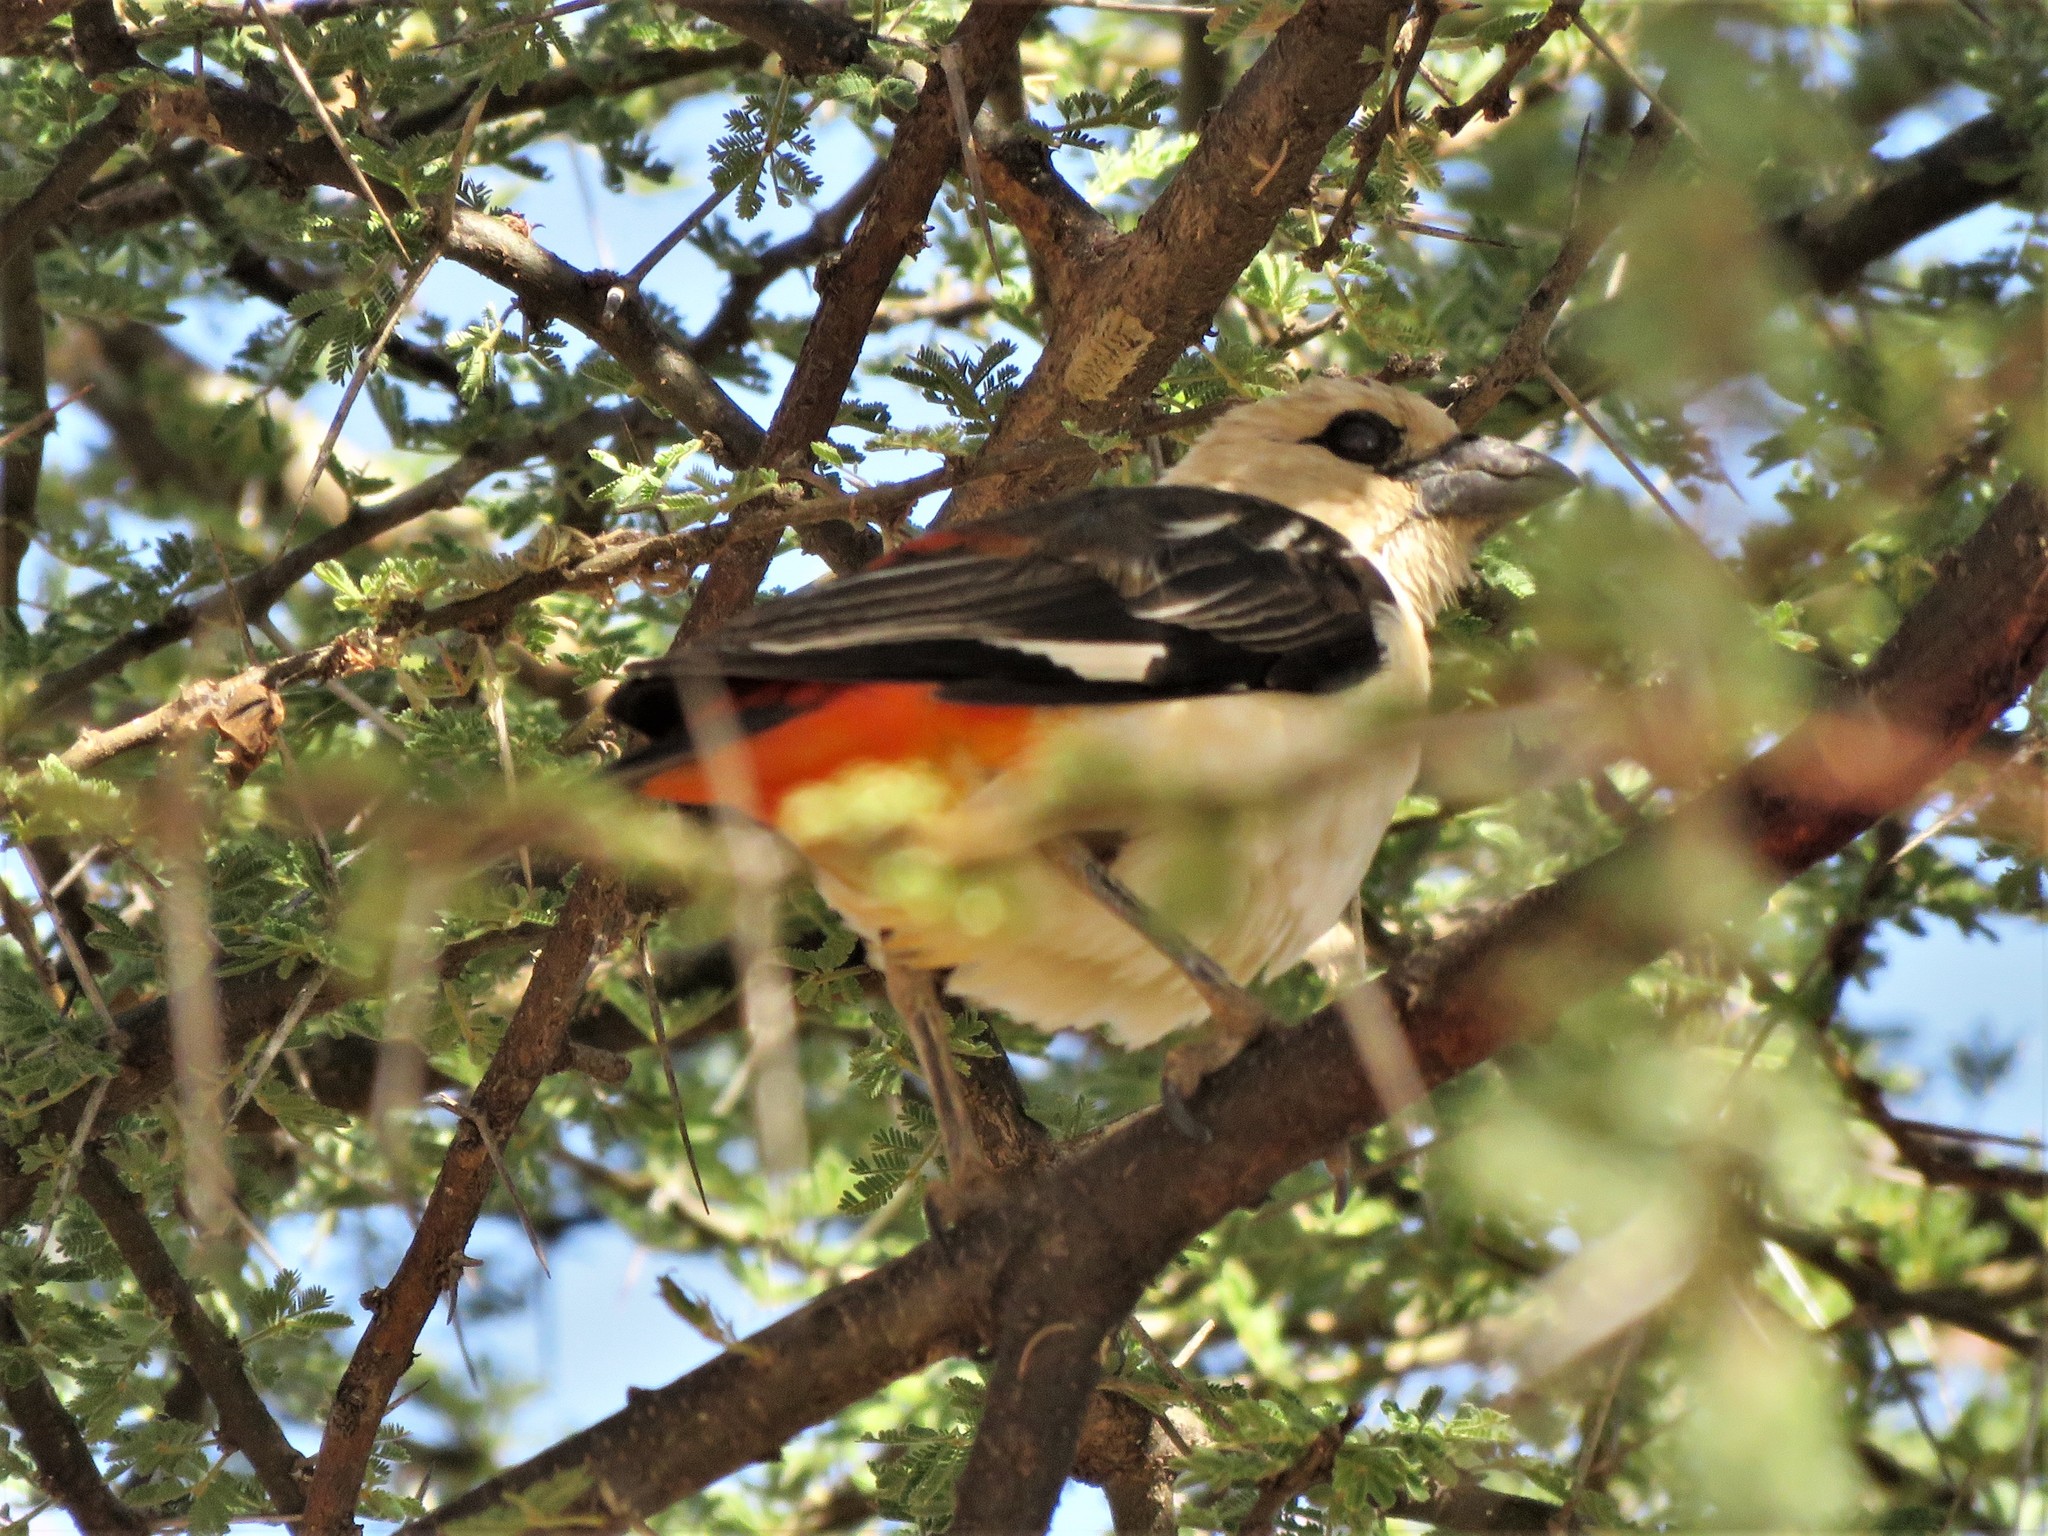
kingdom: Animalia
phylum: Chordata
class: Aves
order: Passeriformes
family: Ploceidae
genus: Dinemellia
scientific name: Dinemellia dinemelli
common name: White-headed buffalo weaver
